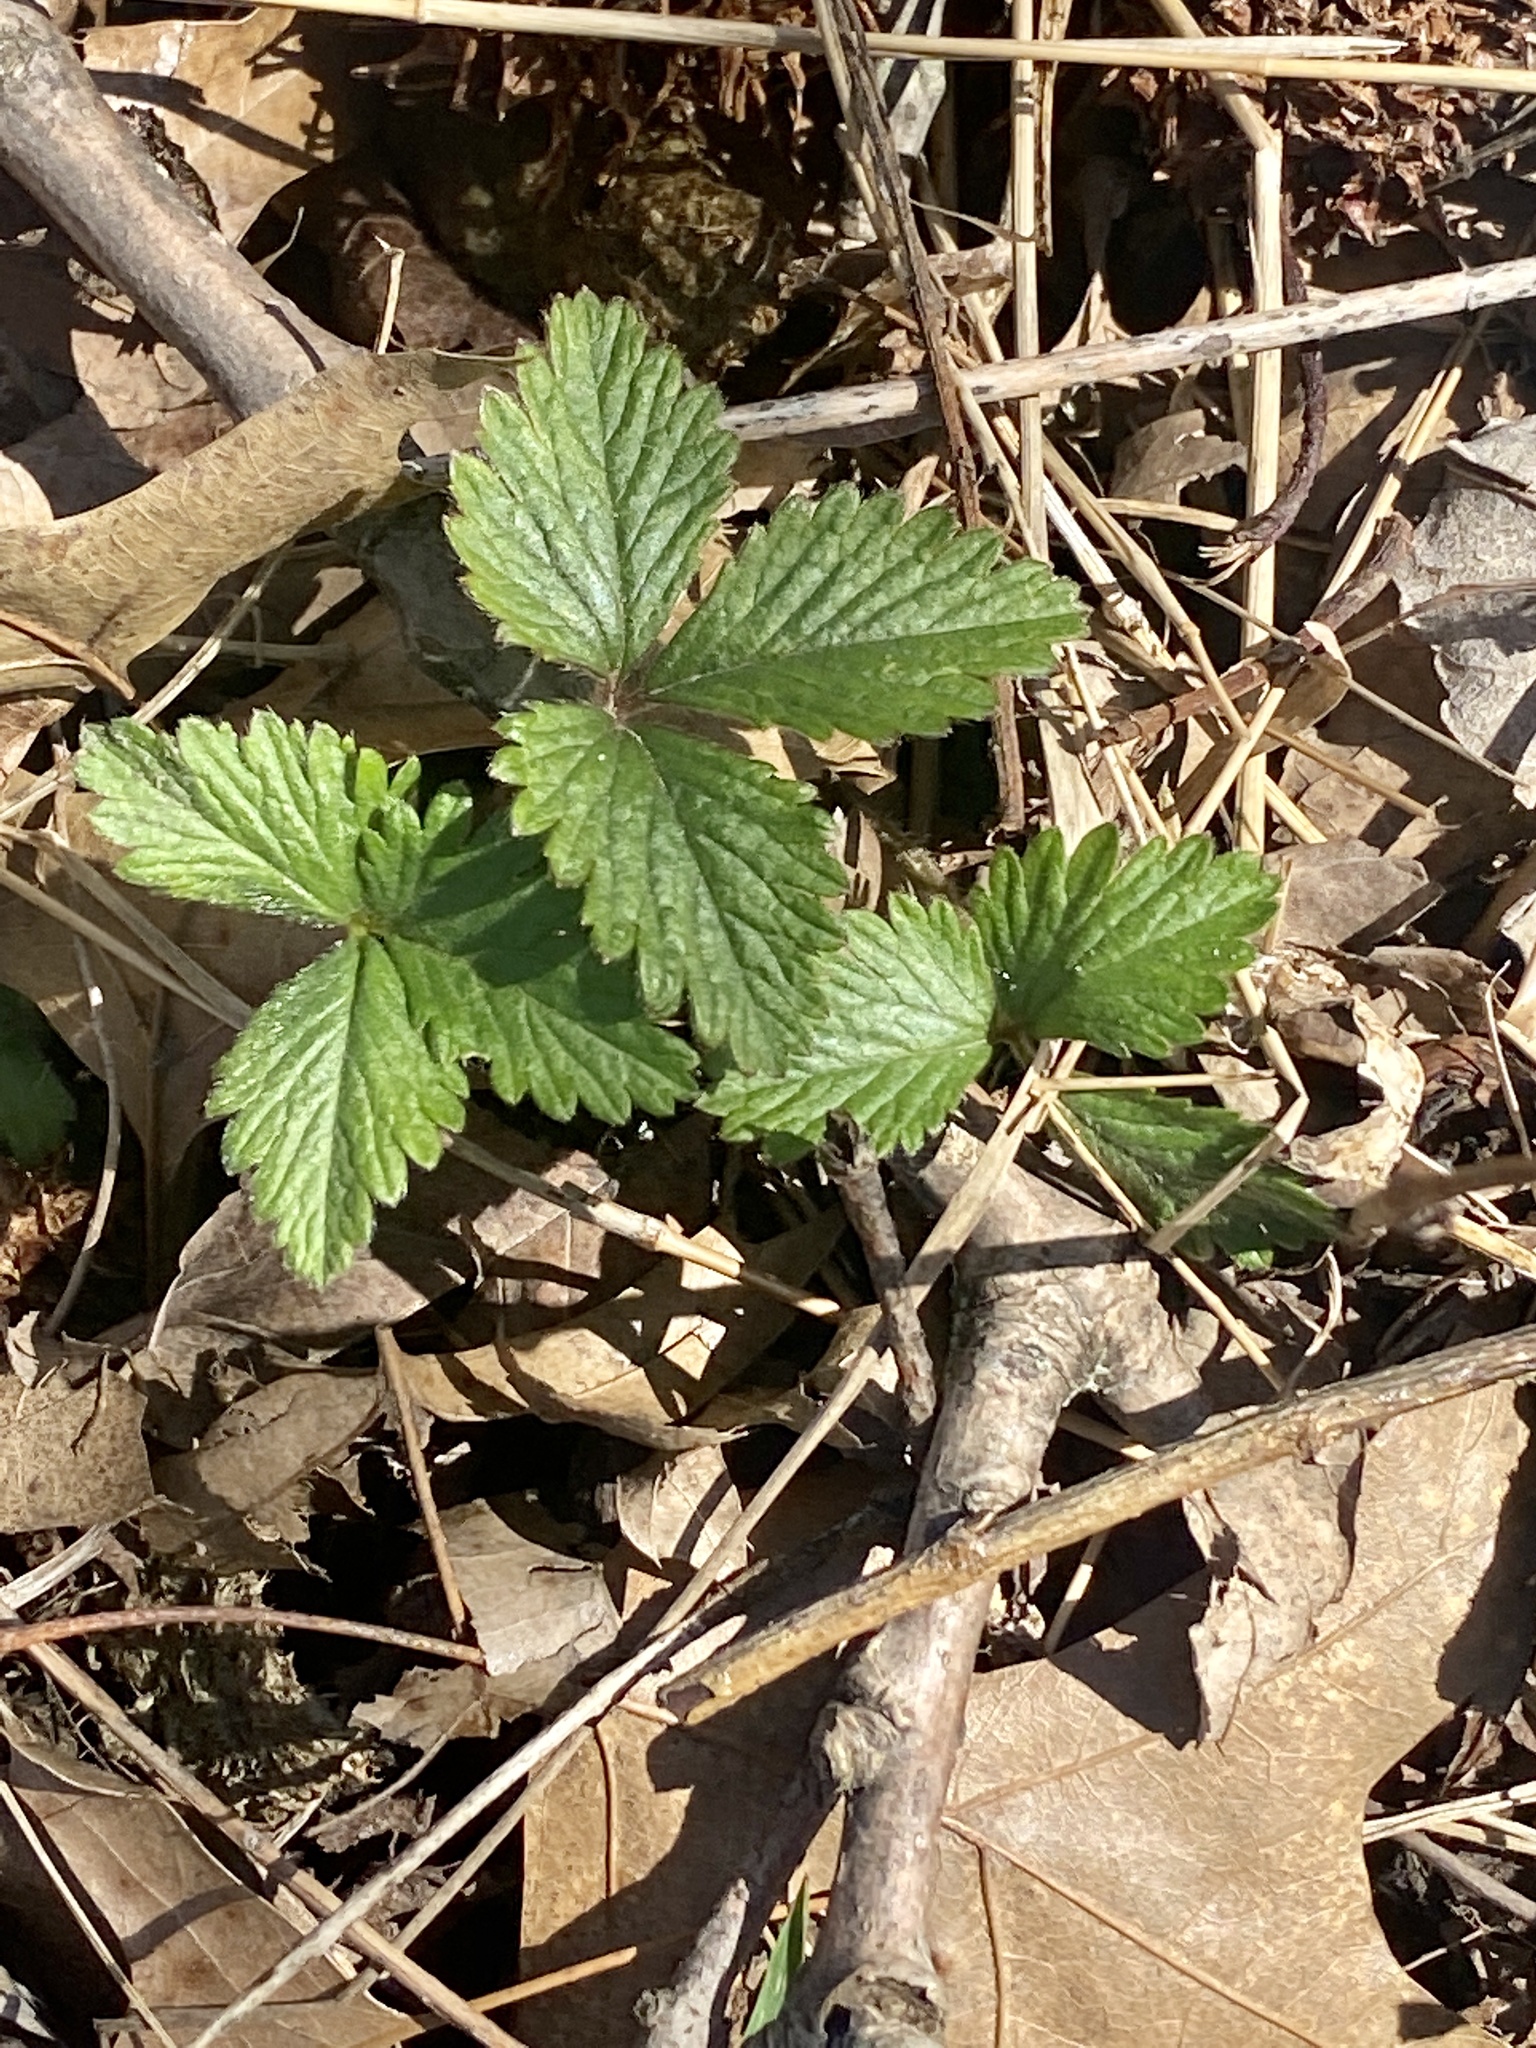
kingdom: Plantae
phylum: Tracheophyta
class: Magnoliopsida
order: Rosales
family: Rosaceae
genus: Potentilla
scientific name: Potentilla indica
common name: Yellow-flowered strawberry
